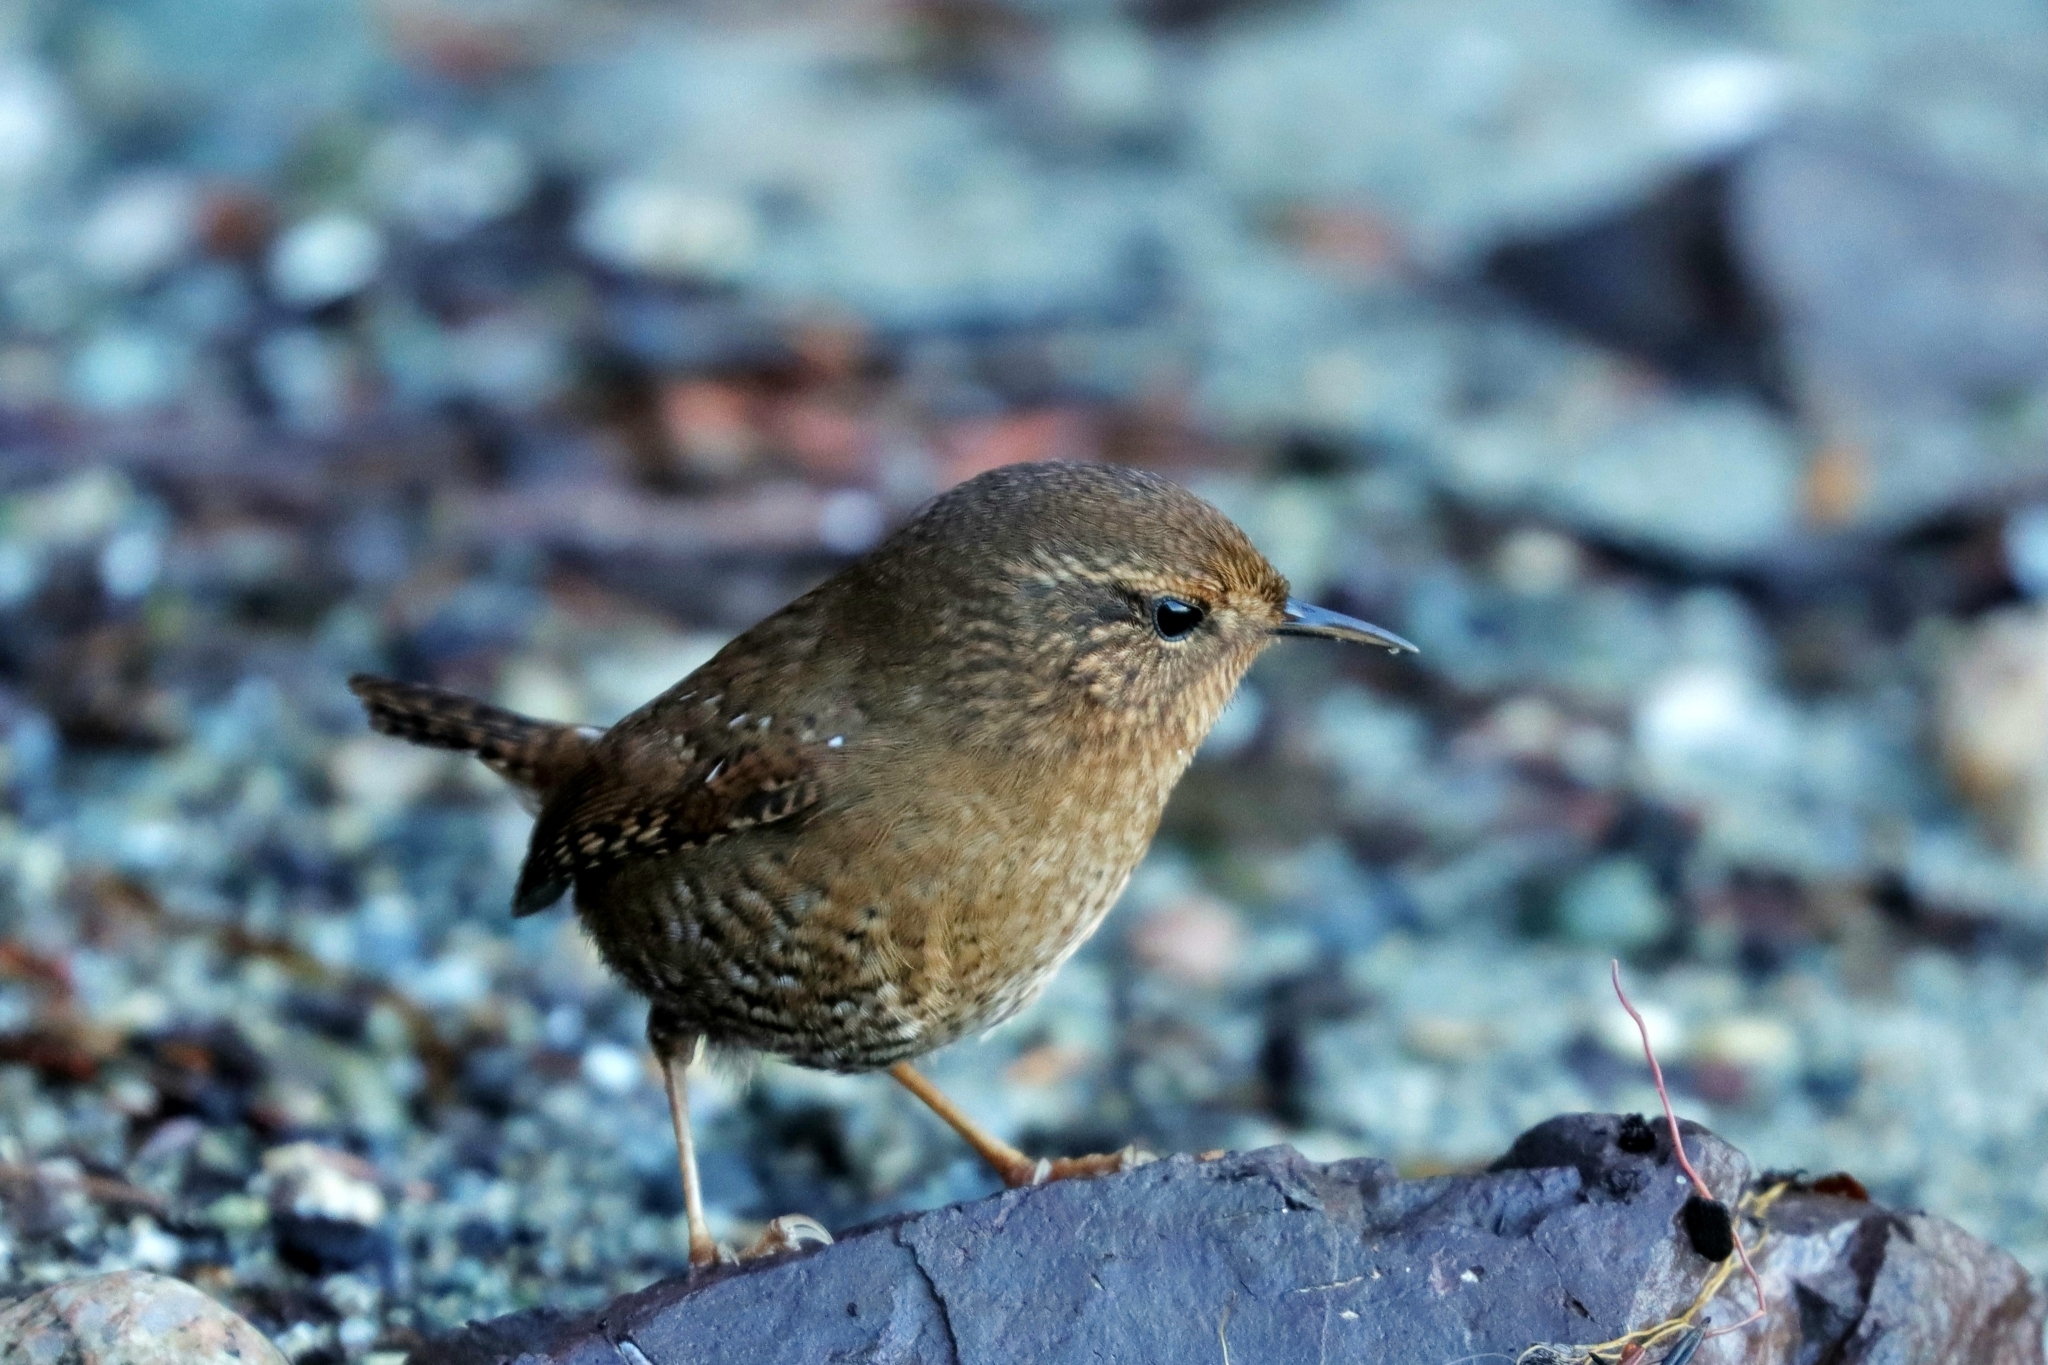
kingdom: Animalia
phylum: Chordata
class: Aves
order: Passeriformes
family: Troglodytidae
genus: Troglodytes
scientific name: Troglodytes pacificus
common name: Pacific wren
